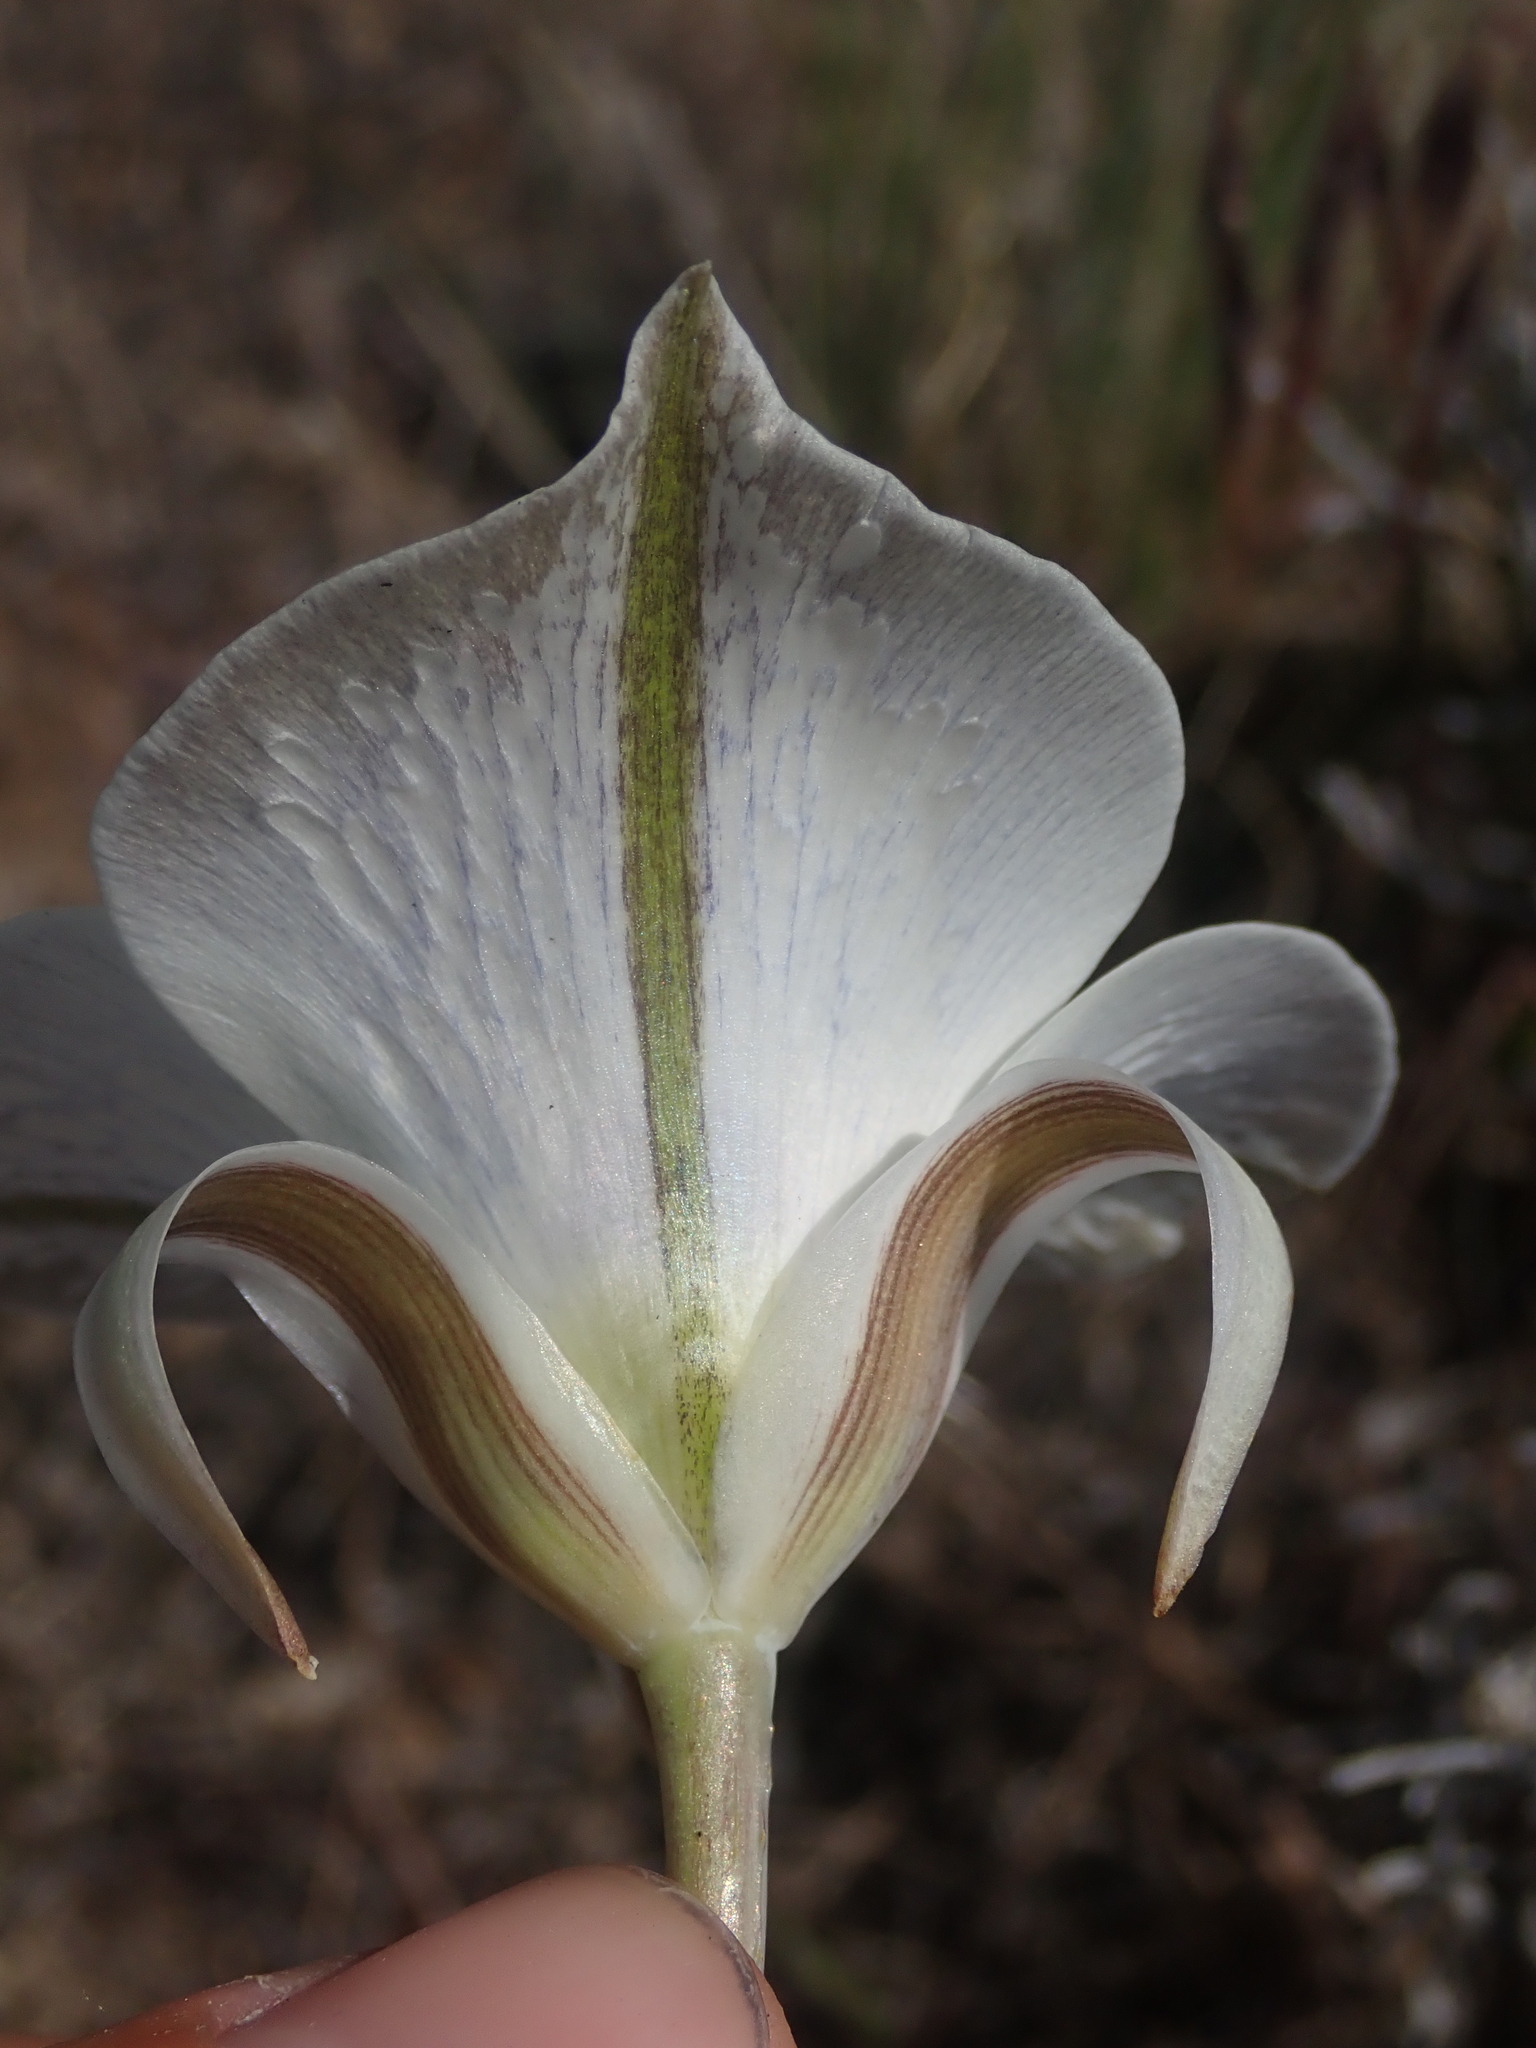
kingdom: Plantae
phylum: Tracheophyta
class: Liliopsida
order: Liliales
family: Liliaceae
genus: Calochortus
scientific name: Calochortus bruneaunis
